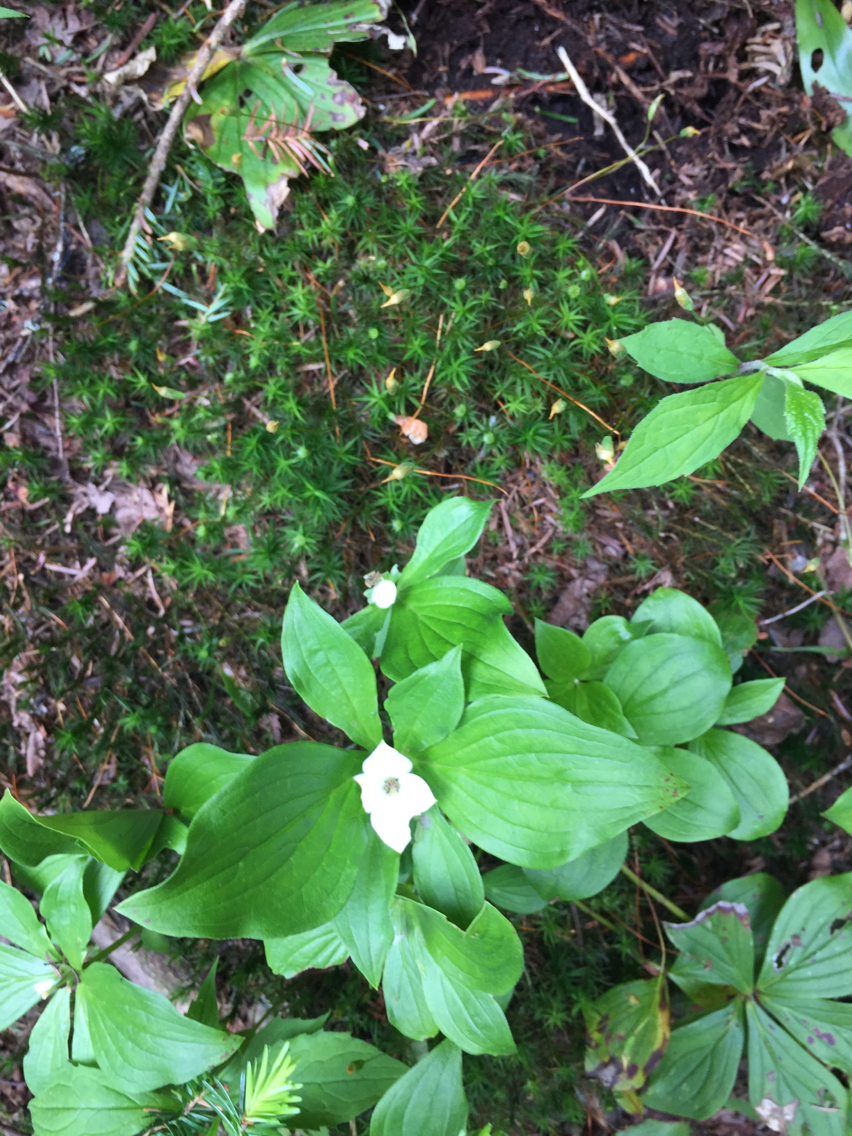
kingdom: Plantae
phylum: Tracheophyta
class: Magnoliopsida
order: Cornales
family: Cornaceae
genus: Cornus
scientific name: Cornus canadensis
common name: Creeping dogwood
